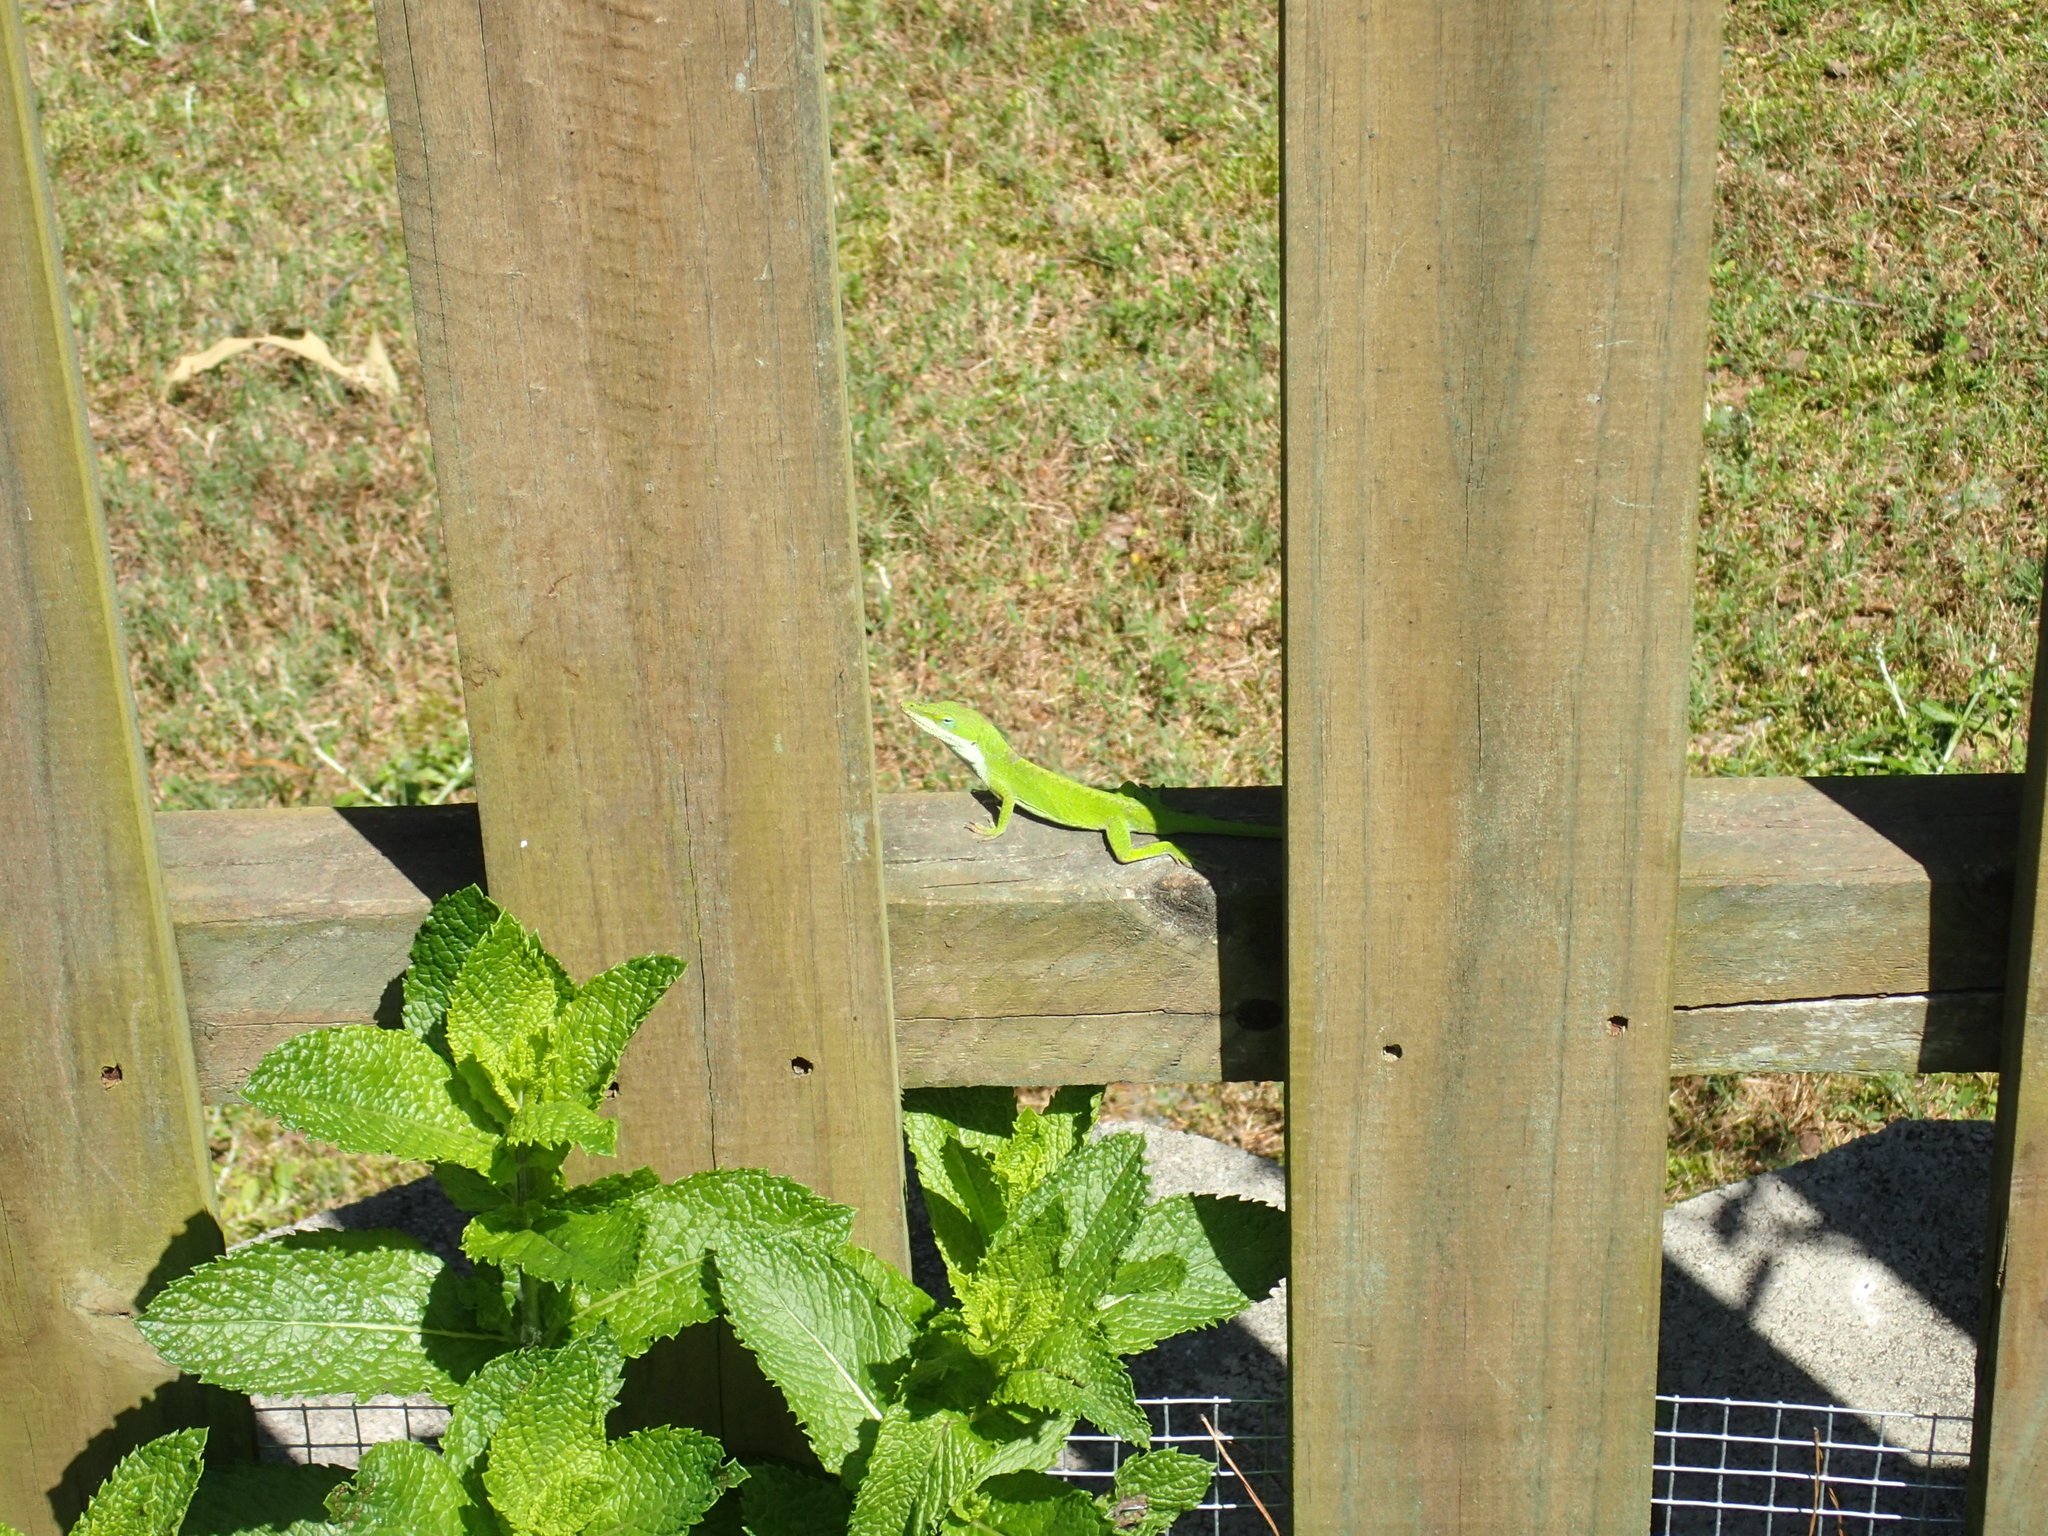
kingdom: Animalia
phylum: Chordata
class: Squamata
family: Dactyloidae
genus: Anolis
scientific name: Anolis carolinensis
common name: Green anole
